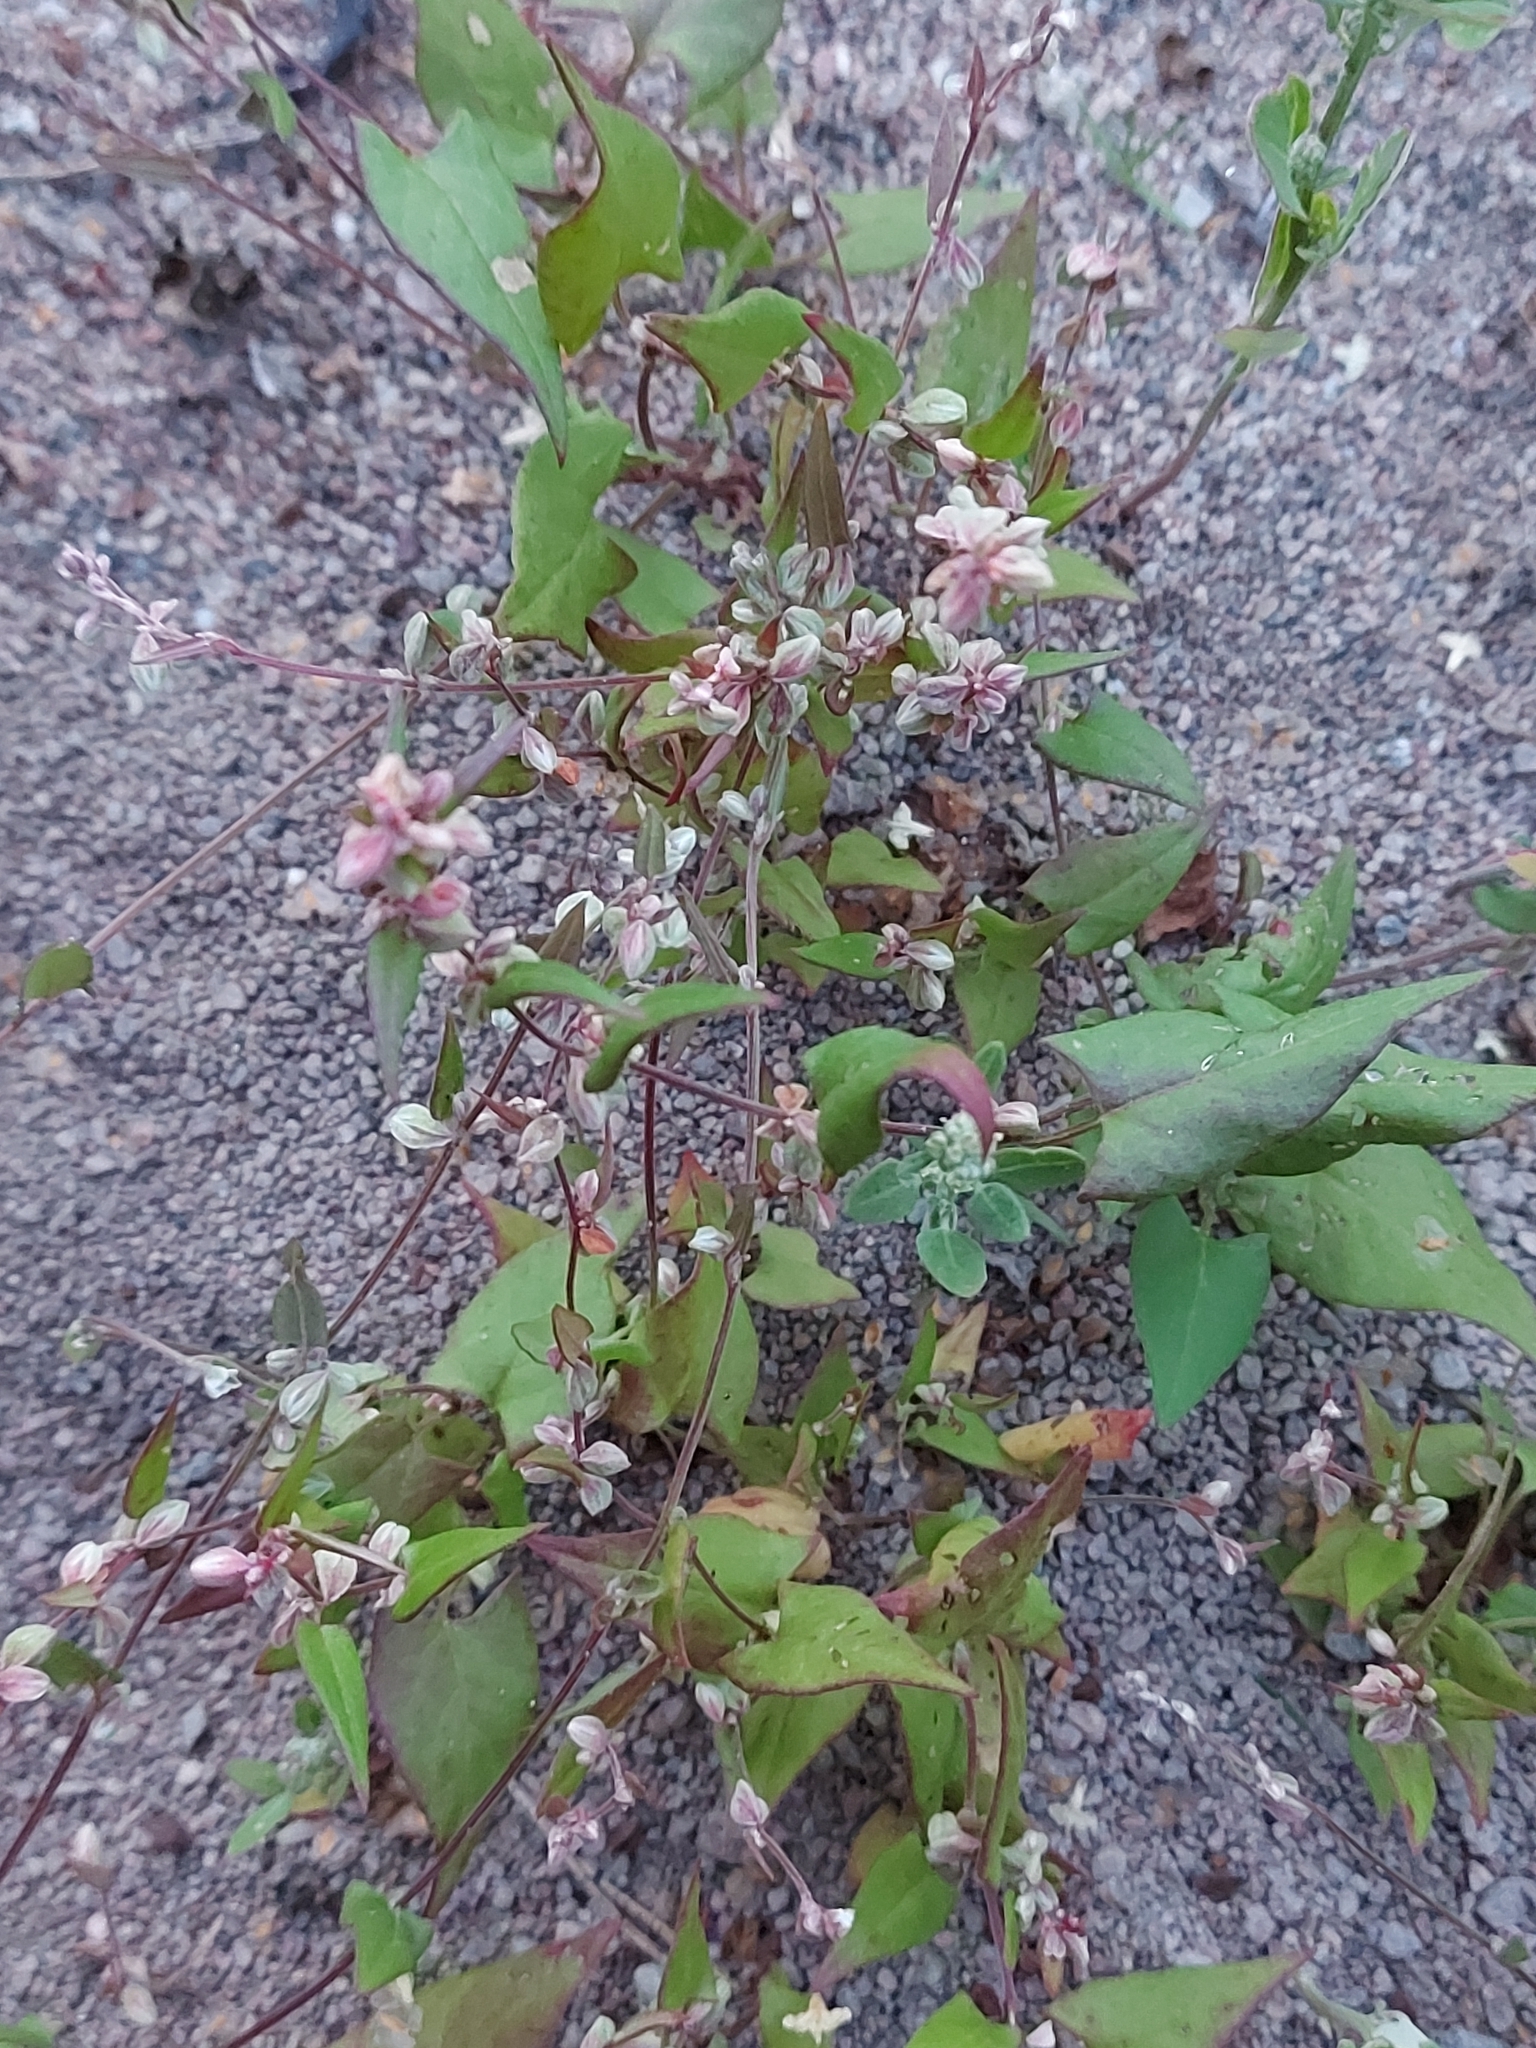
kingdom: Plantae
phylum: Tracheophyta
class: Magnoliopsida
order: Caryophyllales
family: Polygonaceae
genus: Fallopia
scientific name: Fallopia convolvulus
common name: Black bindweed
